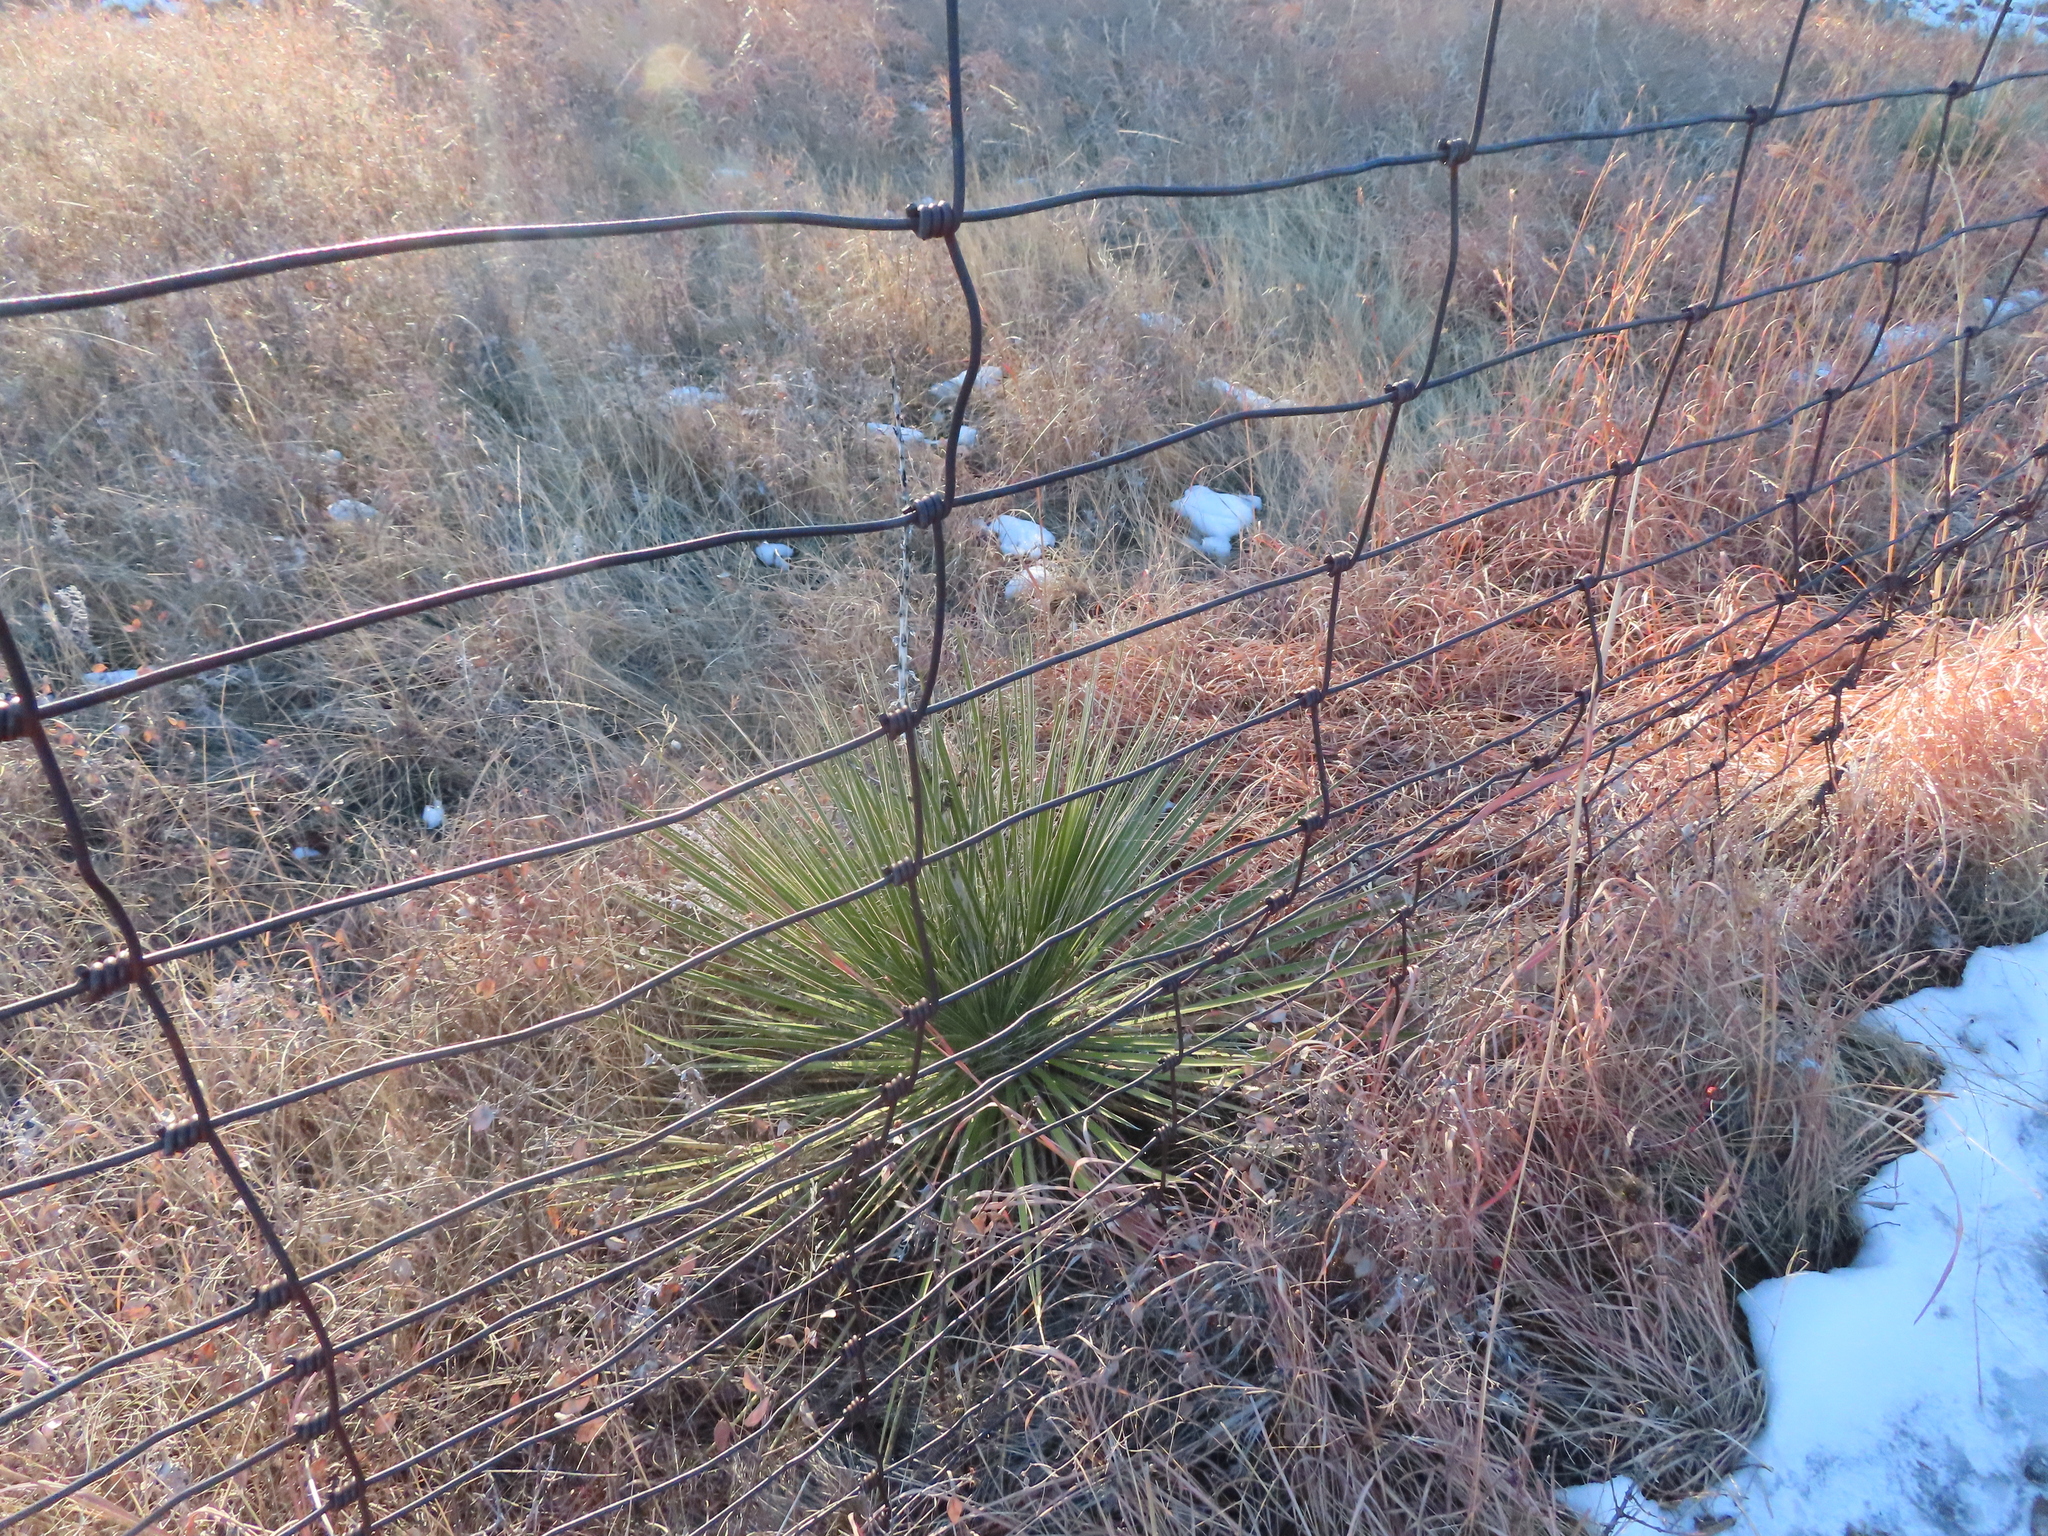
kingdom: Plantae
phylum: Tracheophyta
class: Liliopsida
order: Asparagales
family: Asparagaceae
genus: Yucca
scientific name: Yucca glauca
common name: Great plains yucca
